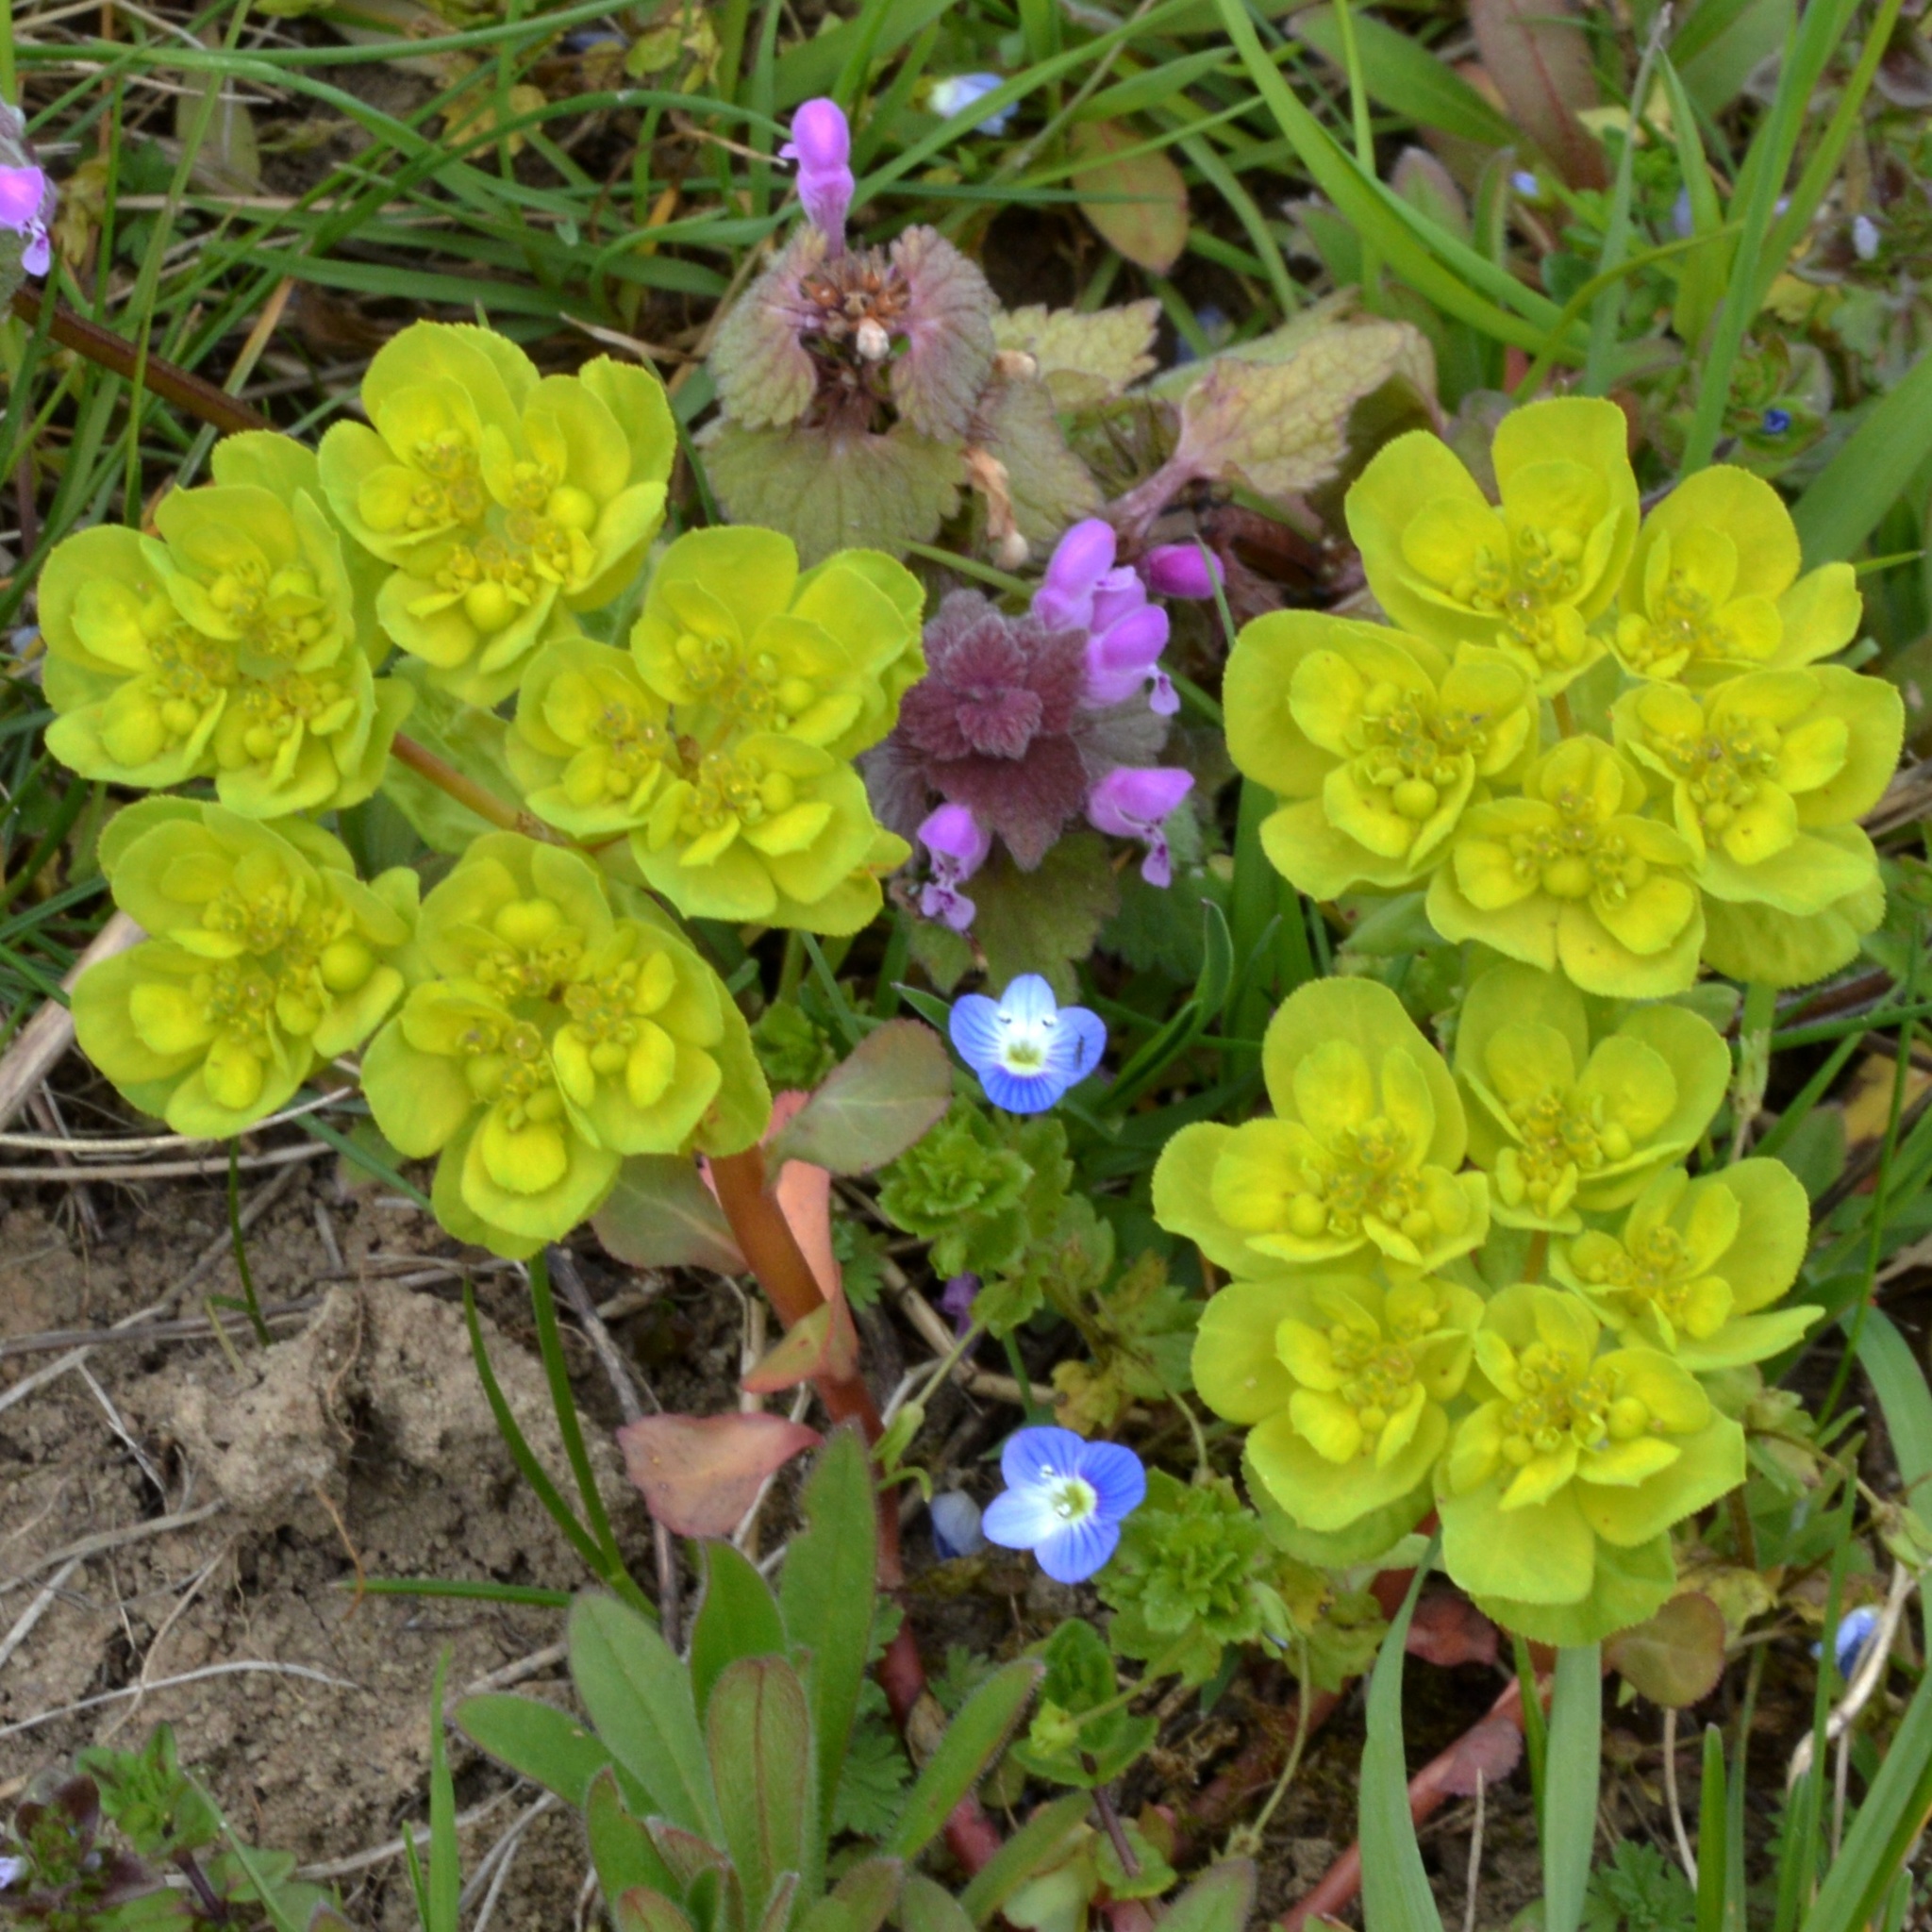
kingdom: Plantae
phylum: Tracheophyta
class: Magnoliopsida
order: Malpighiales
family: Euphorbiaceae
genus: Euphorbia
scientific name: Euphorbia helioscopia
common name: Sun spurge
